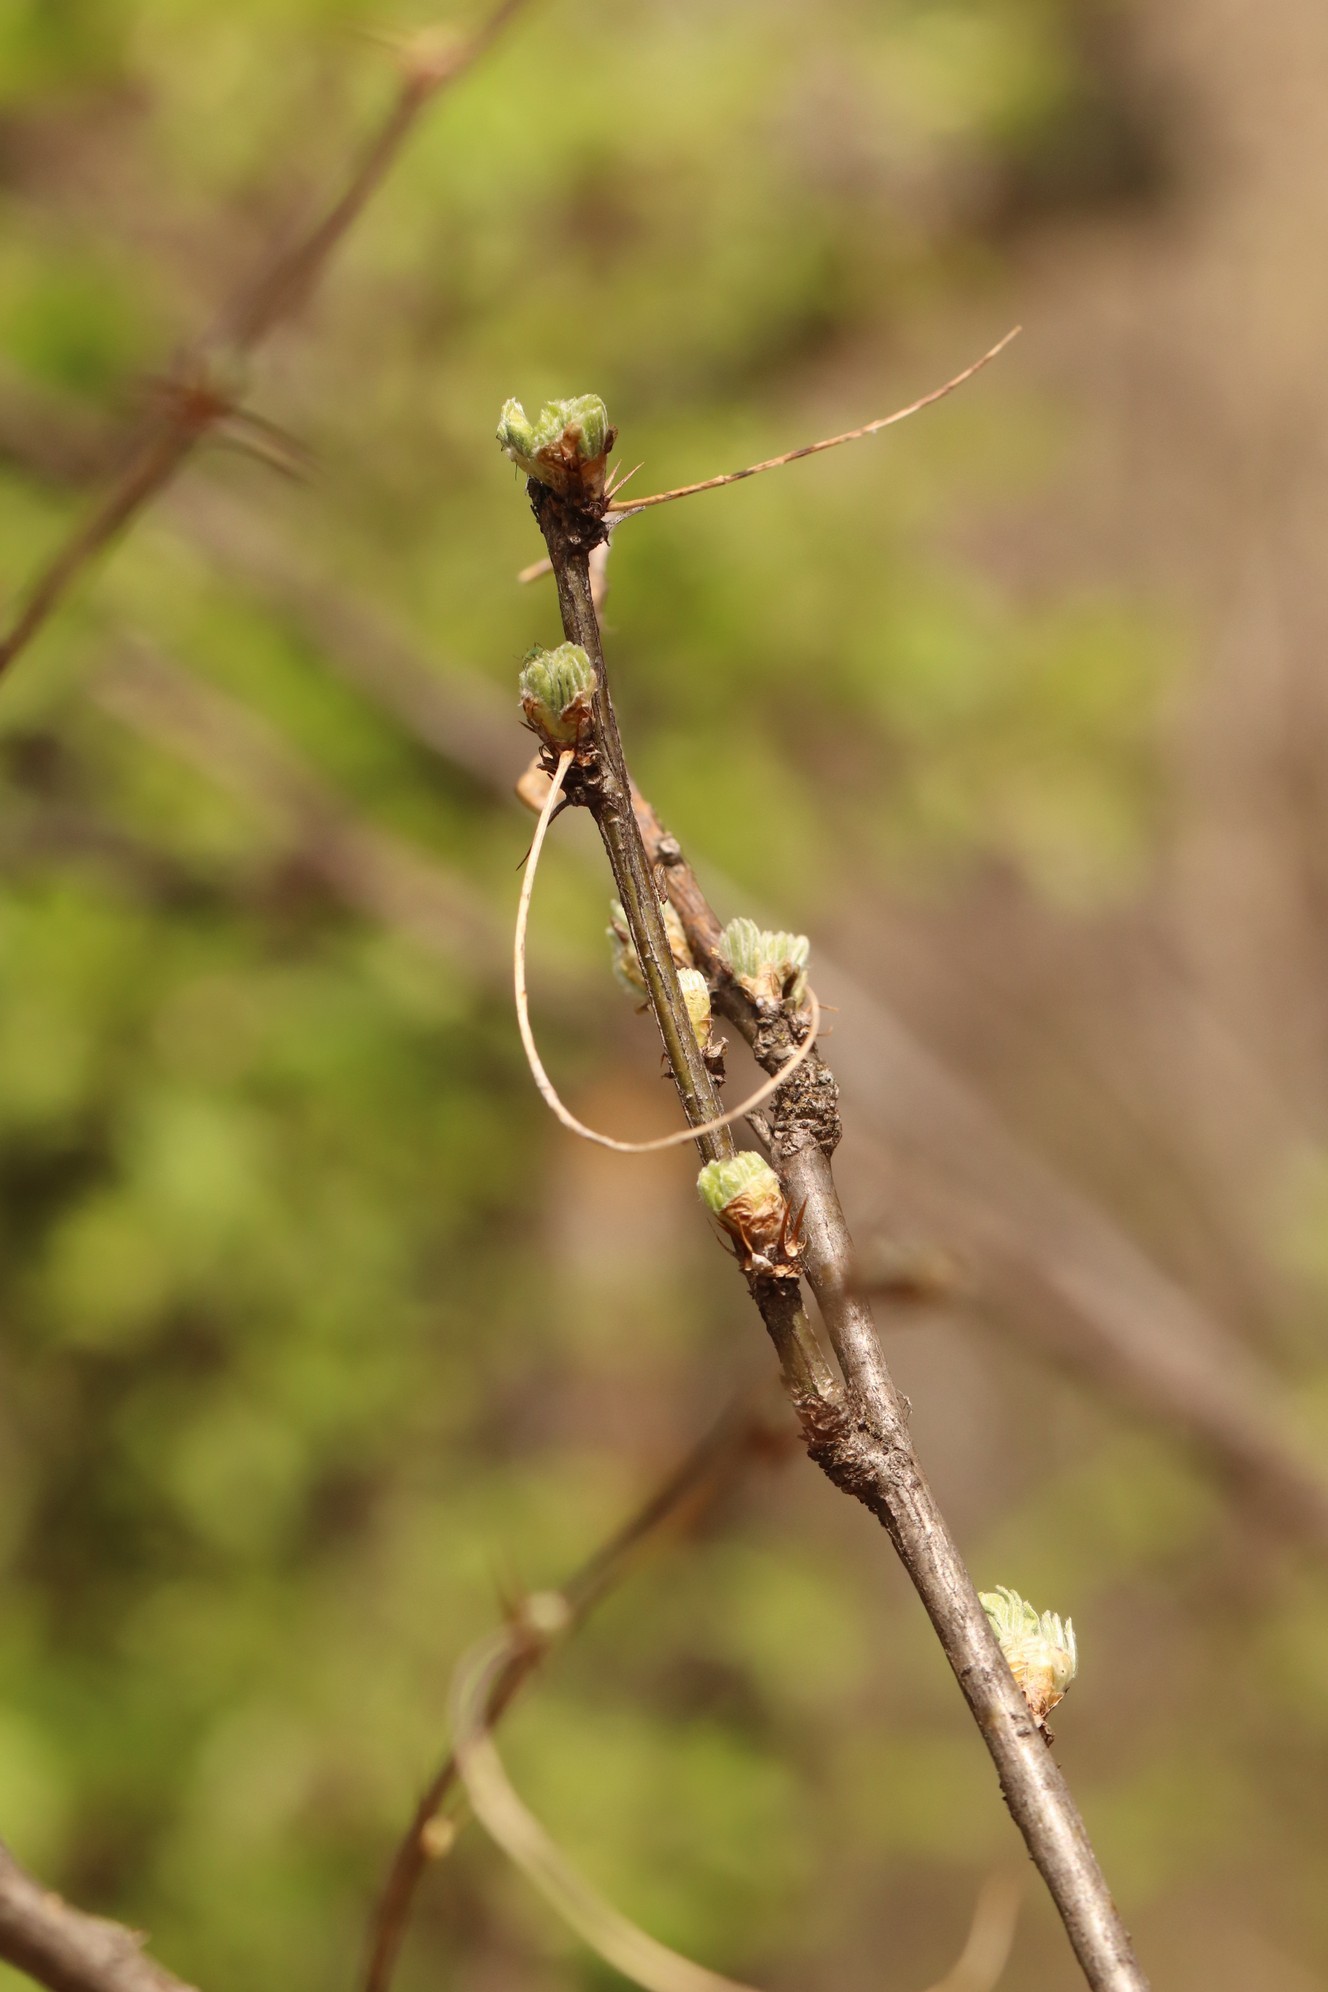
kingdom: Plantae
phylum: Tracheophyta
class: Magnoliopsida
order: Fabales
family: Fabaceae
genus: Caragana
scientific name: Caragana arborescens
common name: Siberian peashrub
